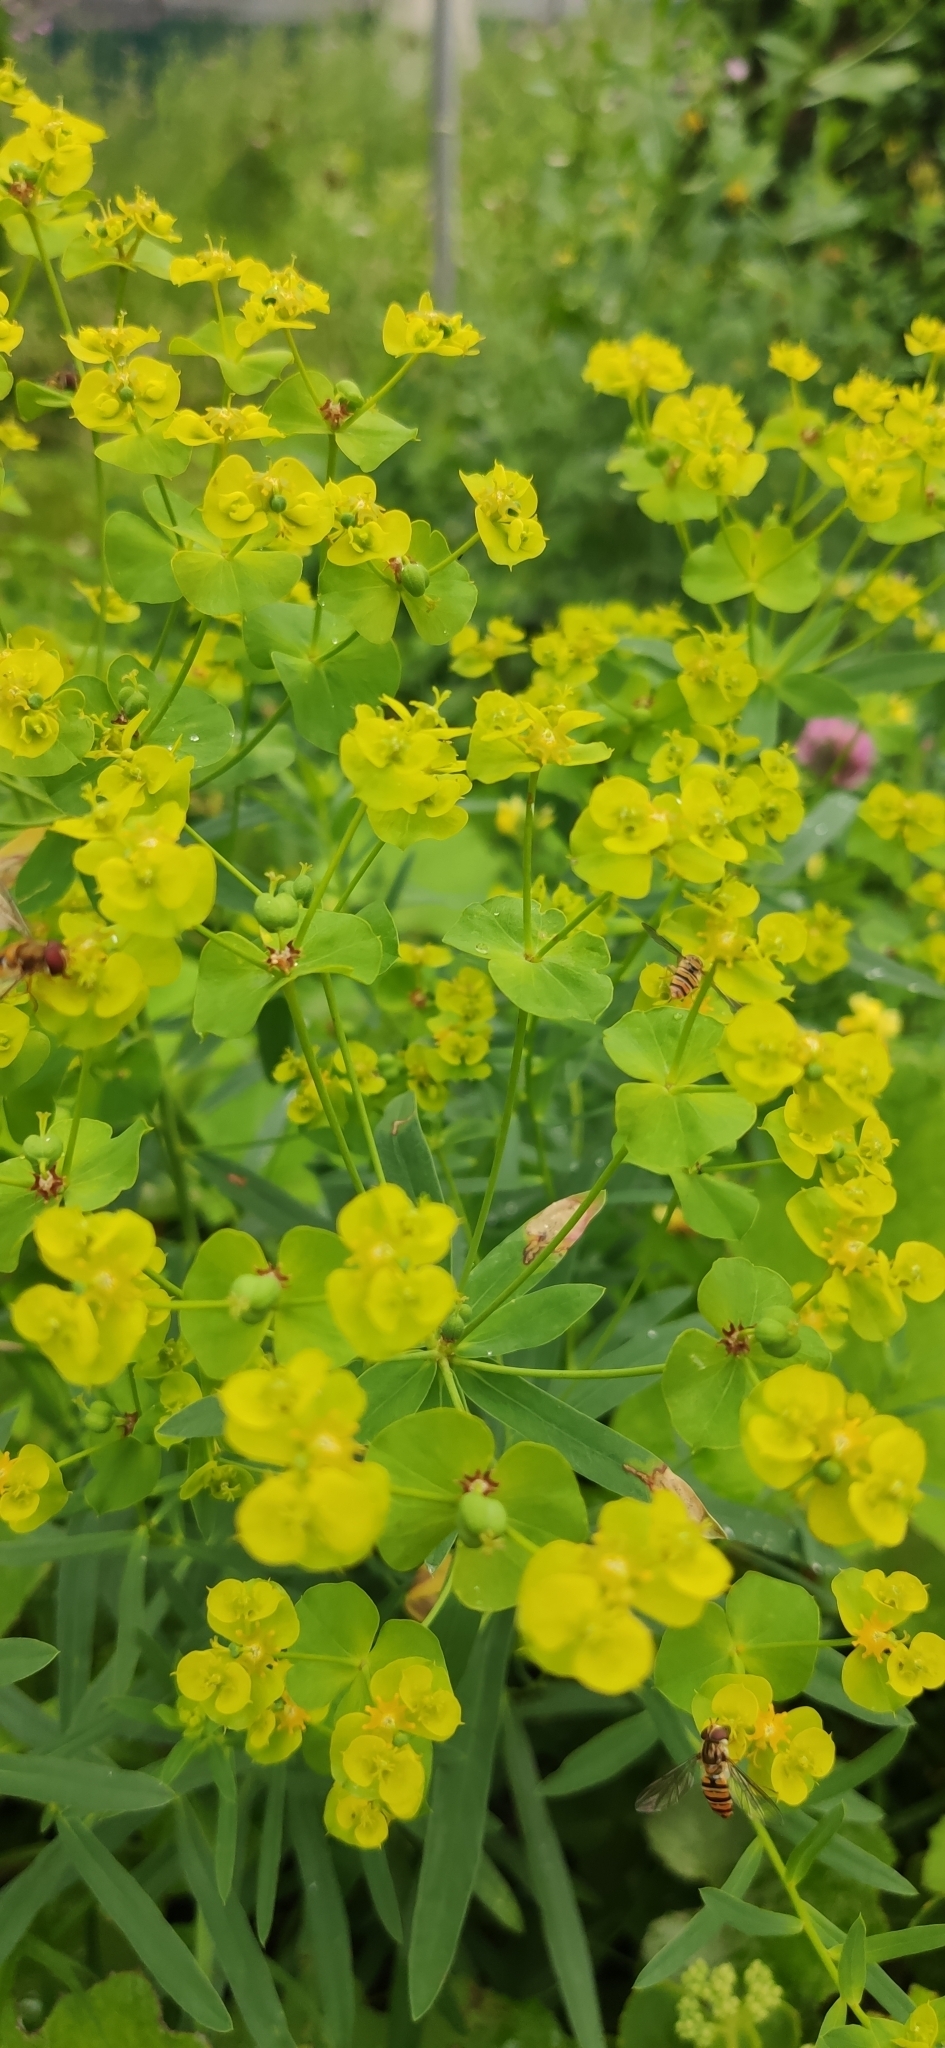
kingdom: Plantae
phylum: Tracheophyta
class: Magnoliopsida
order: Malpighiales
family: Euphorbiaceae
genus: Euphorbia
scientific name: Euphorbia virgata
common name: Leafy spurge
